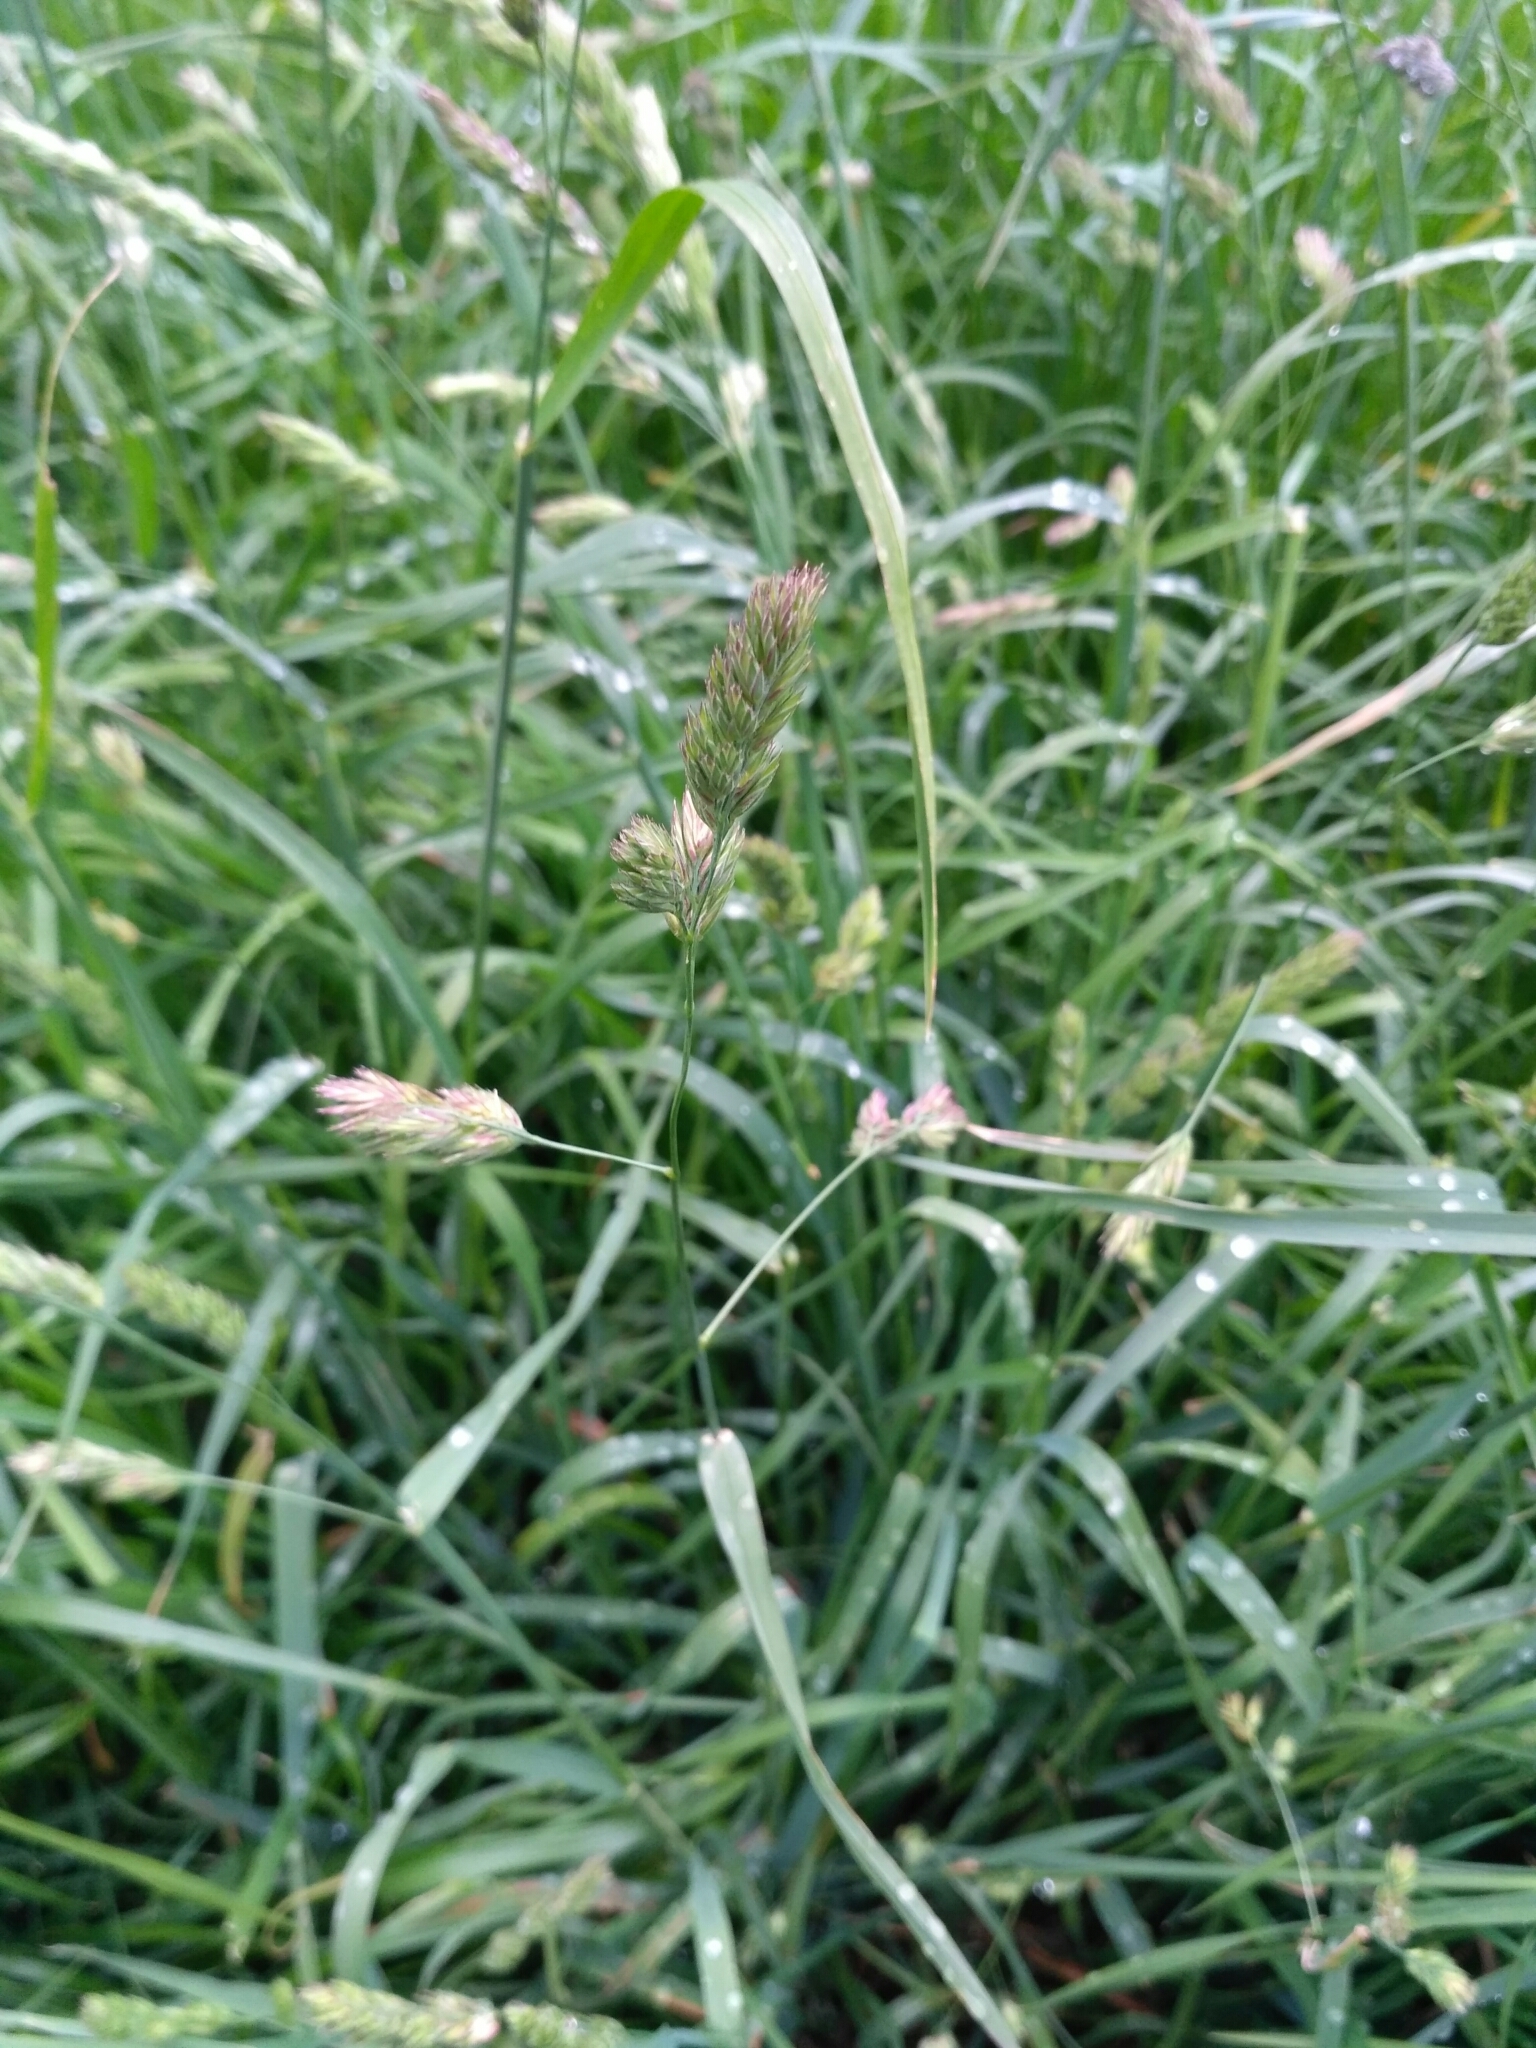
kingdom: Plantae
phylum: Tracheophyta
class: Liliopsida
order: Poales
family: Poaceae
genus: Dactylis
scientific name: Dactylis glomerata
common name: Orchardgrass
